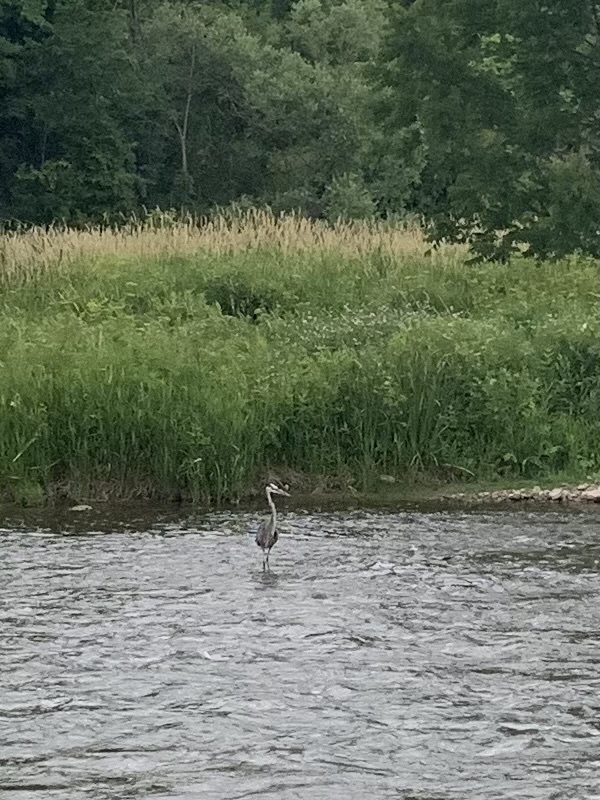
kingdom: Animalia
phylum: Chordata
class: Aves
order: Pelecaniformes
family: Ardeidae
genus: Ardea
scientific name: Ardea herodias
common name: Great blue heron
